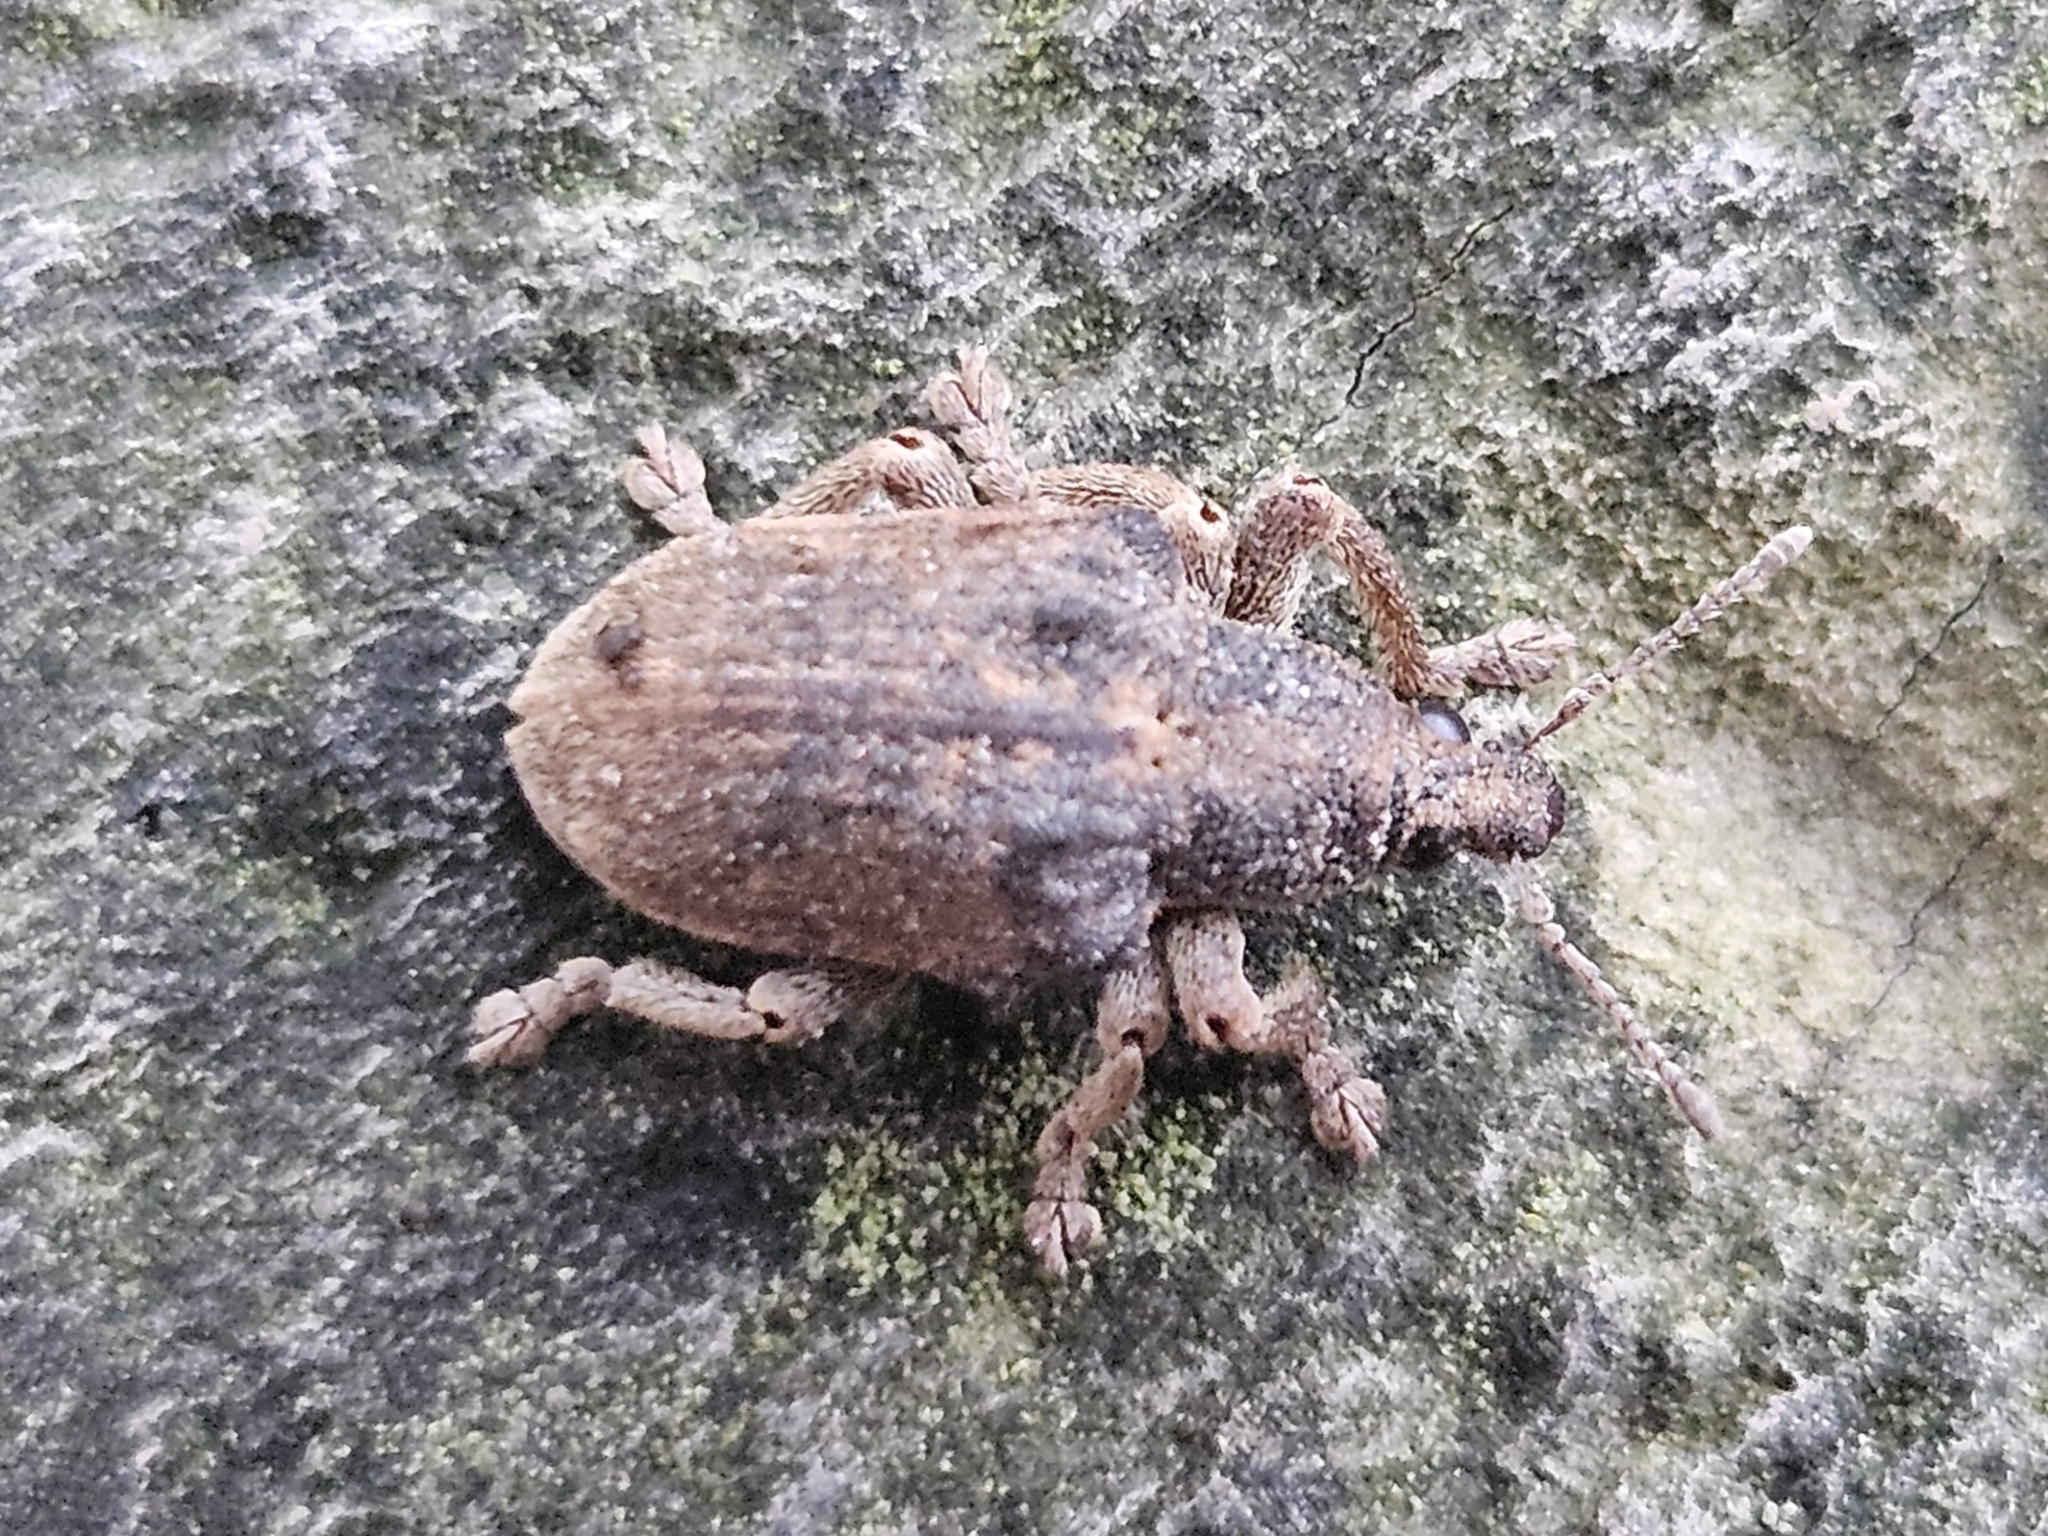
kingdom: Animalia
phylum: Arthropoda
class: Insecta
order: Coleoptera
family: Curculionidae
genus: Gonipterus
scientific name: Gonipterus platensis
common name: Eucalyptus snout beetle
